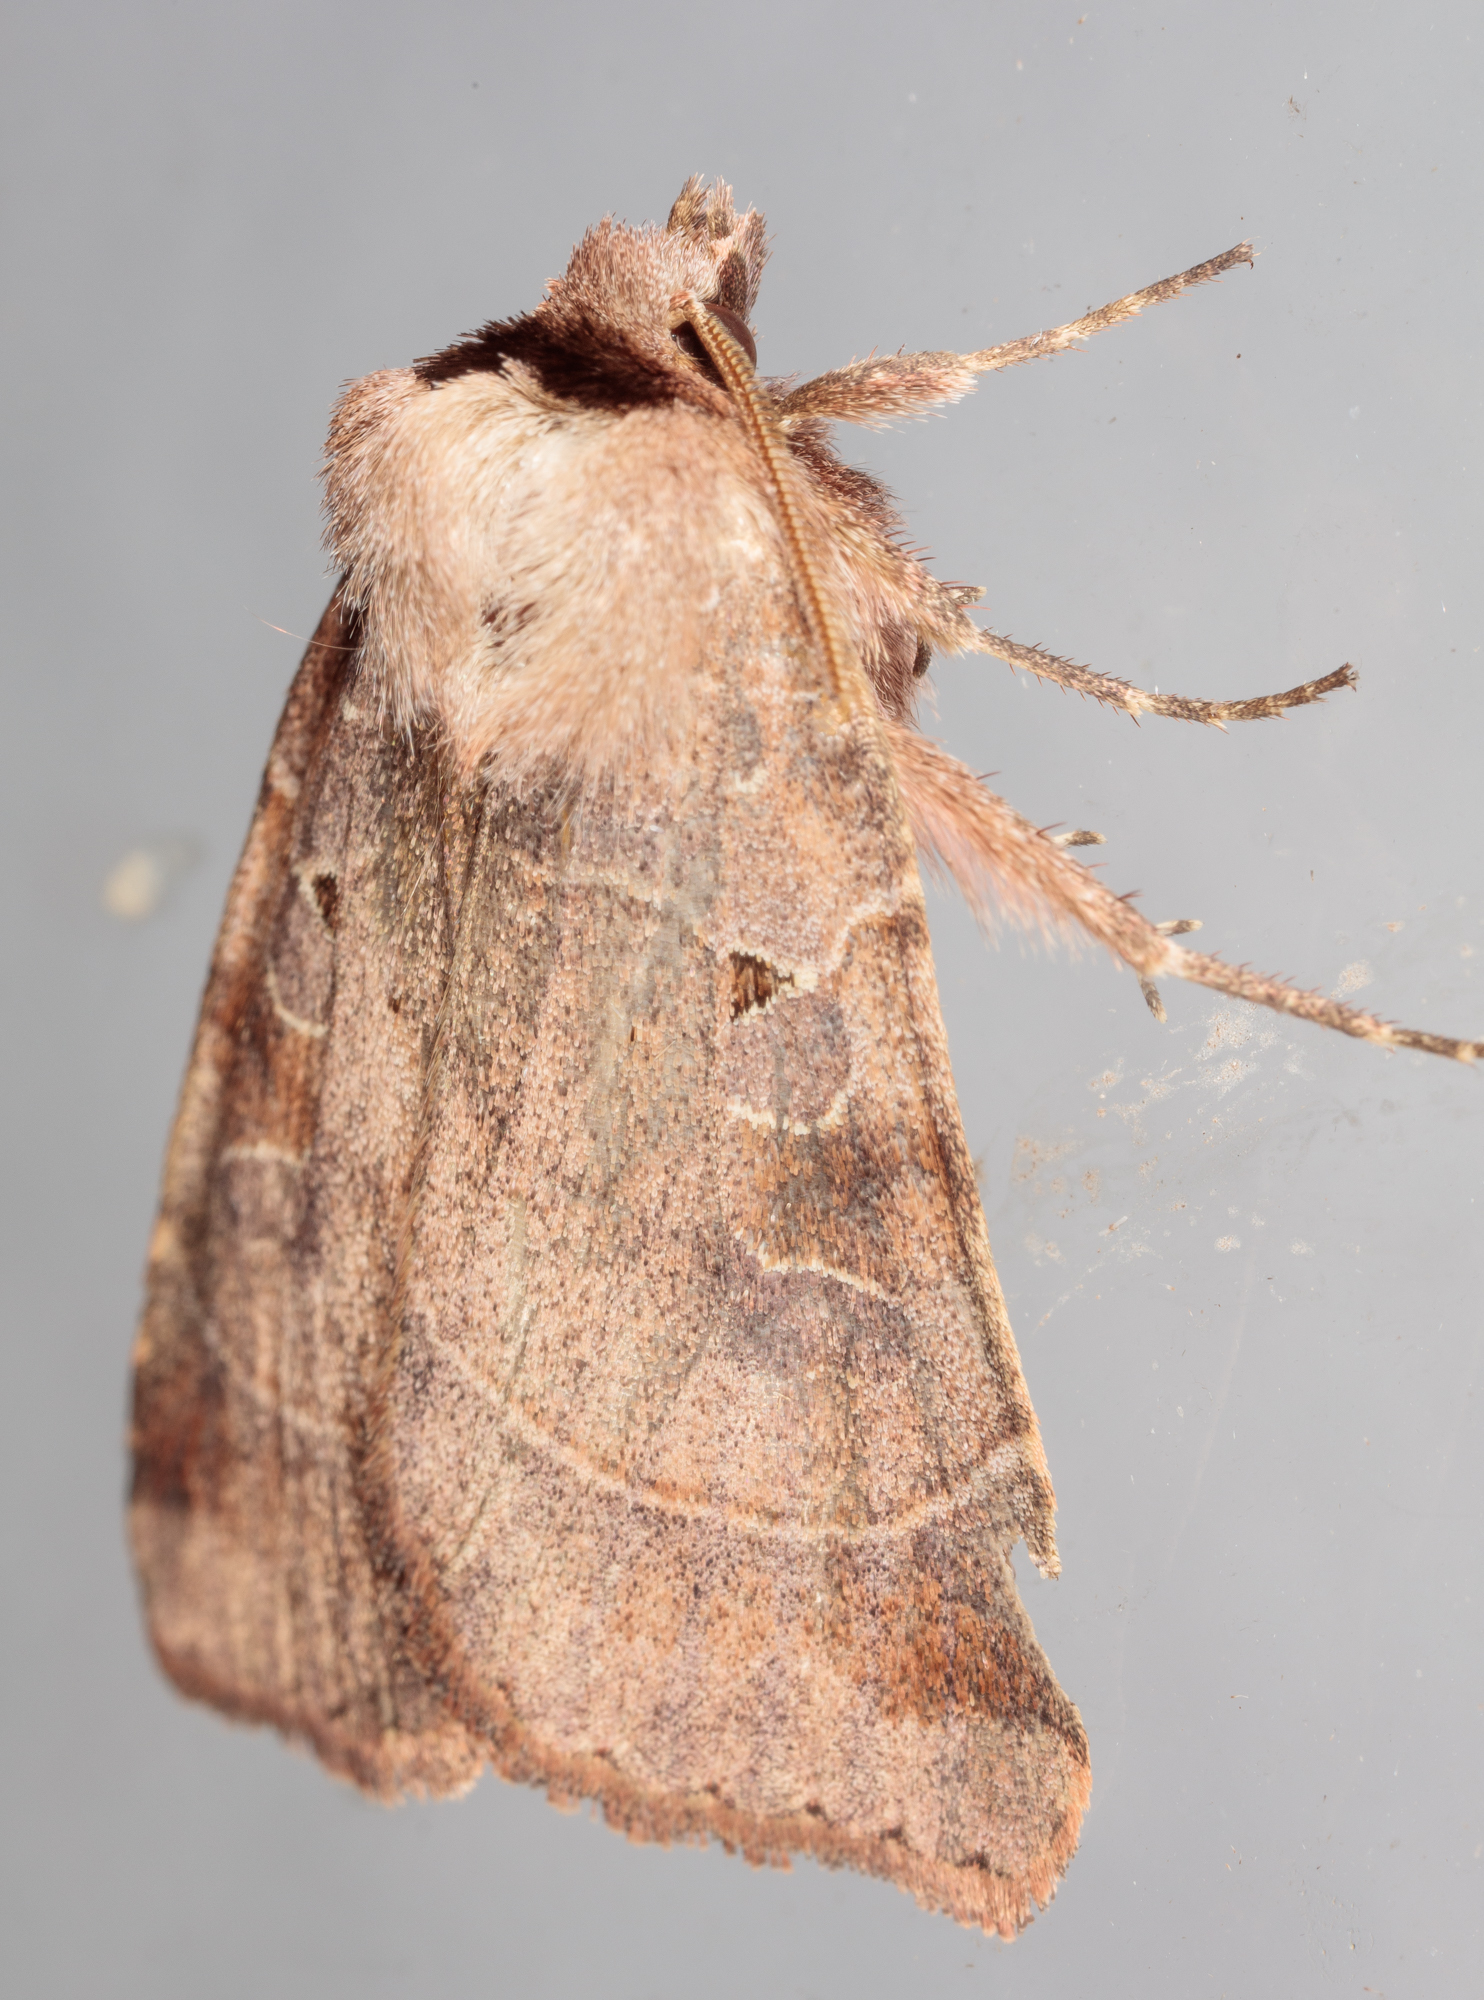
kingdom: Animalia
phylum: Arthropoda
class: Insecta
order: Lepidoptera
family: Noctuidae
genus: Agnorisma
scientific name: Agnorisma badinodis
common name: Pale-banded dart
